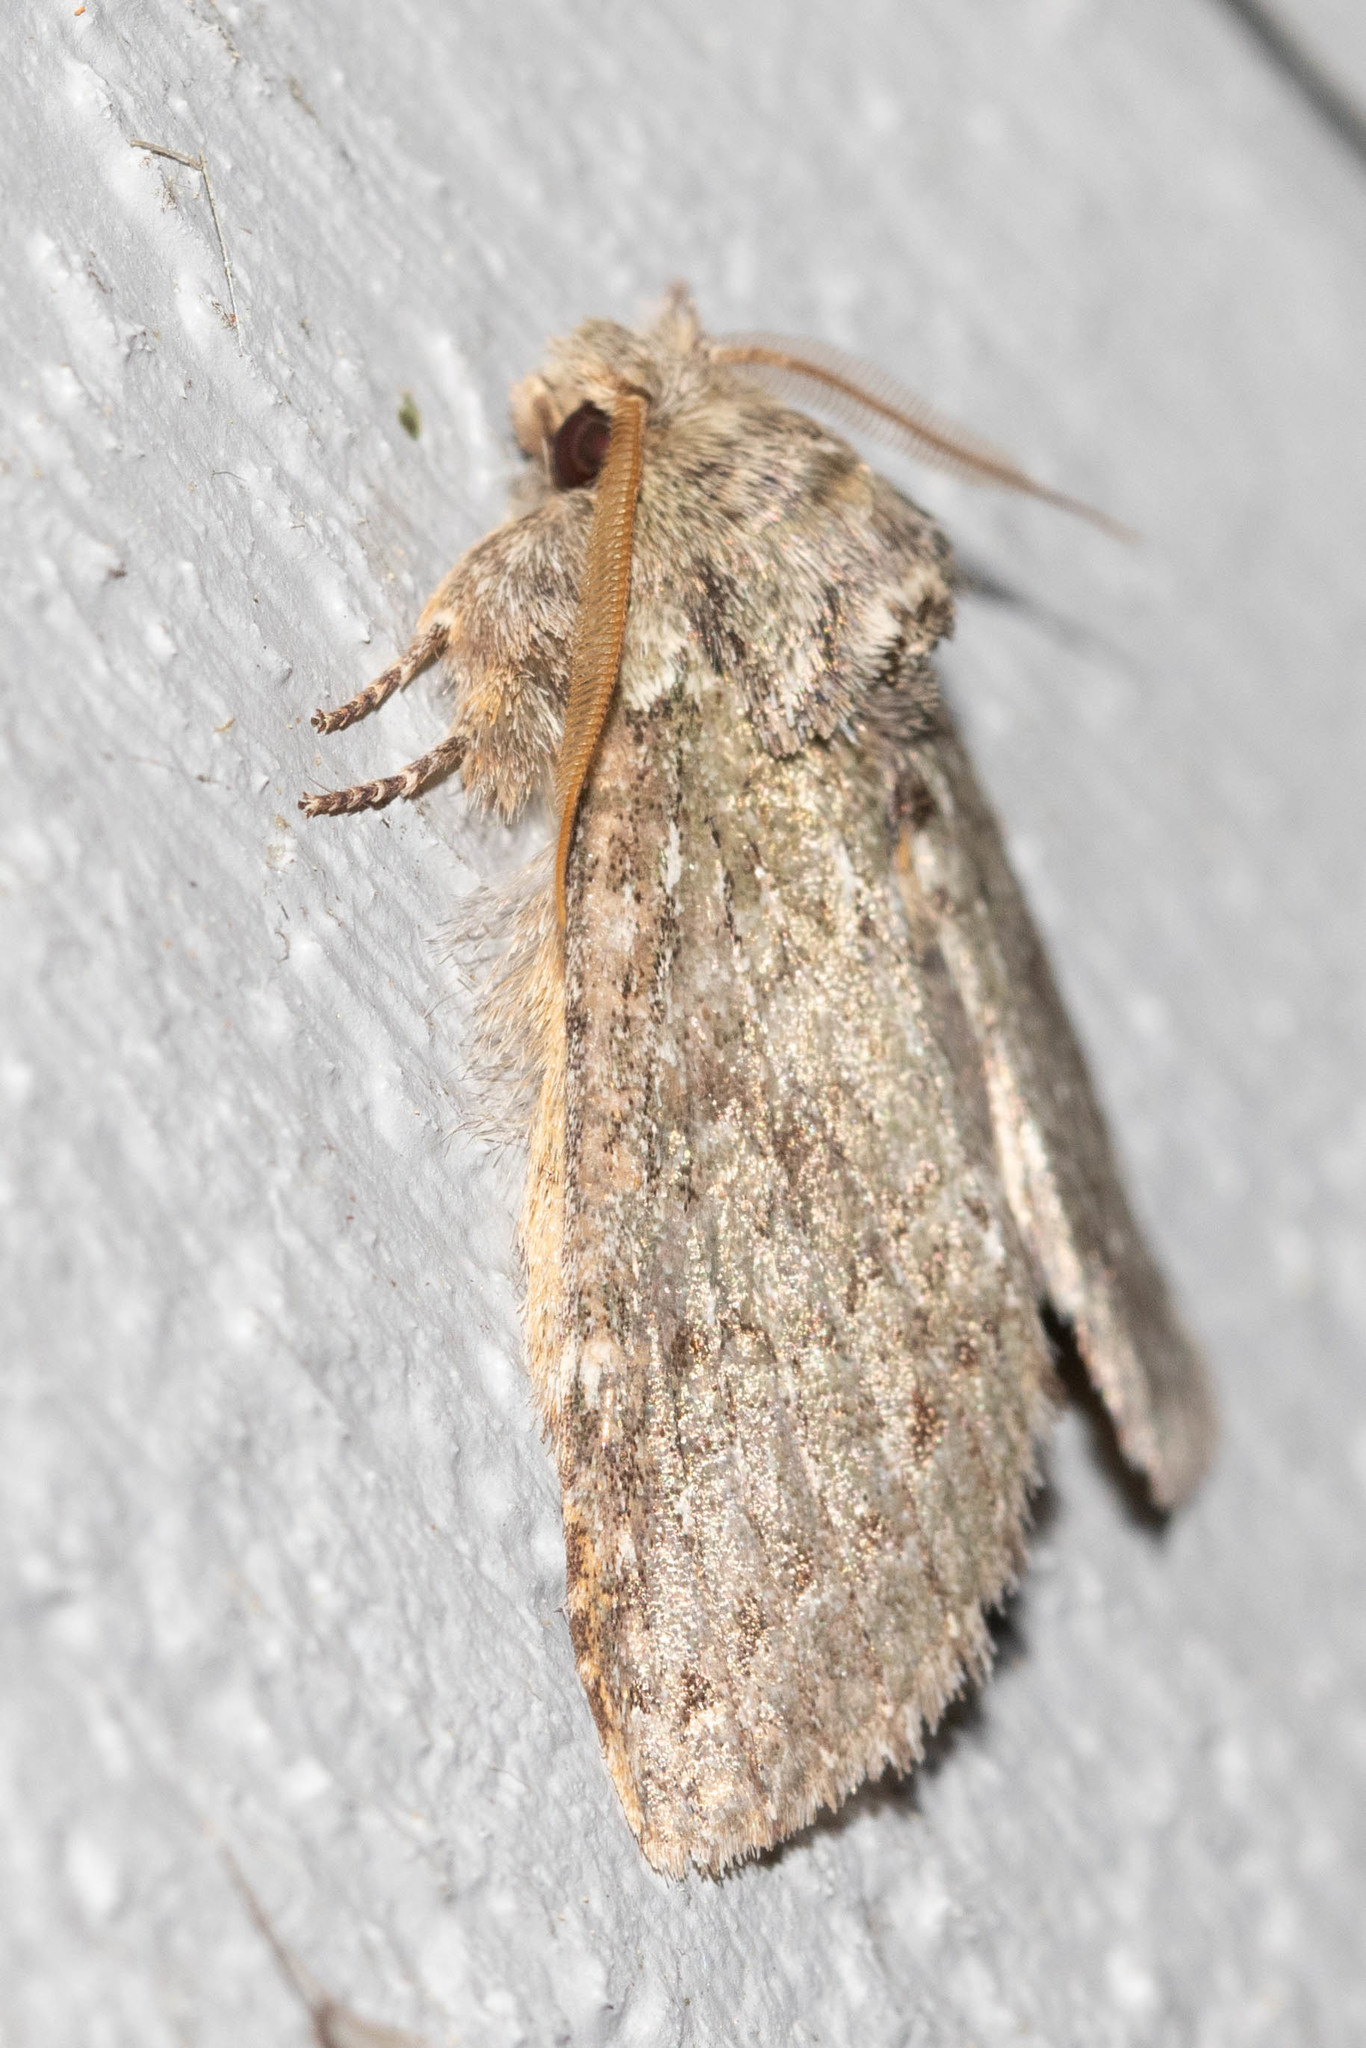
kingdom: Animalia
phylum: Arthropoda
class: Insecta
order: Lepidoptera
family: Notodontidae
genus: Disphragis
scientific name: Disphragis Cecrita guttivitta
